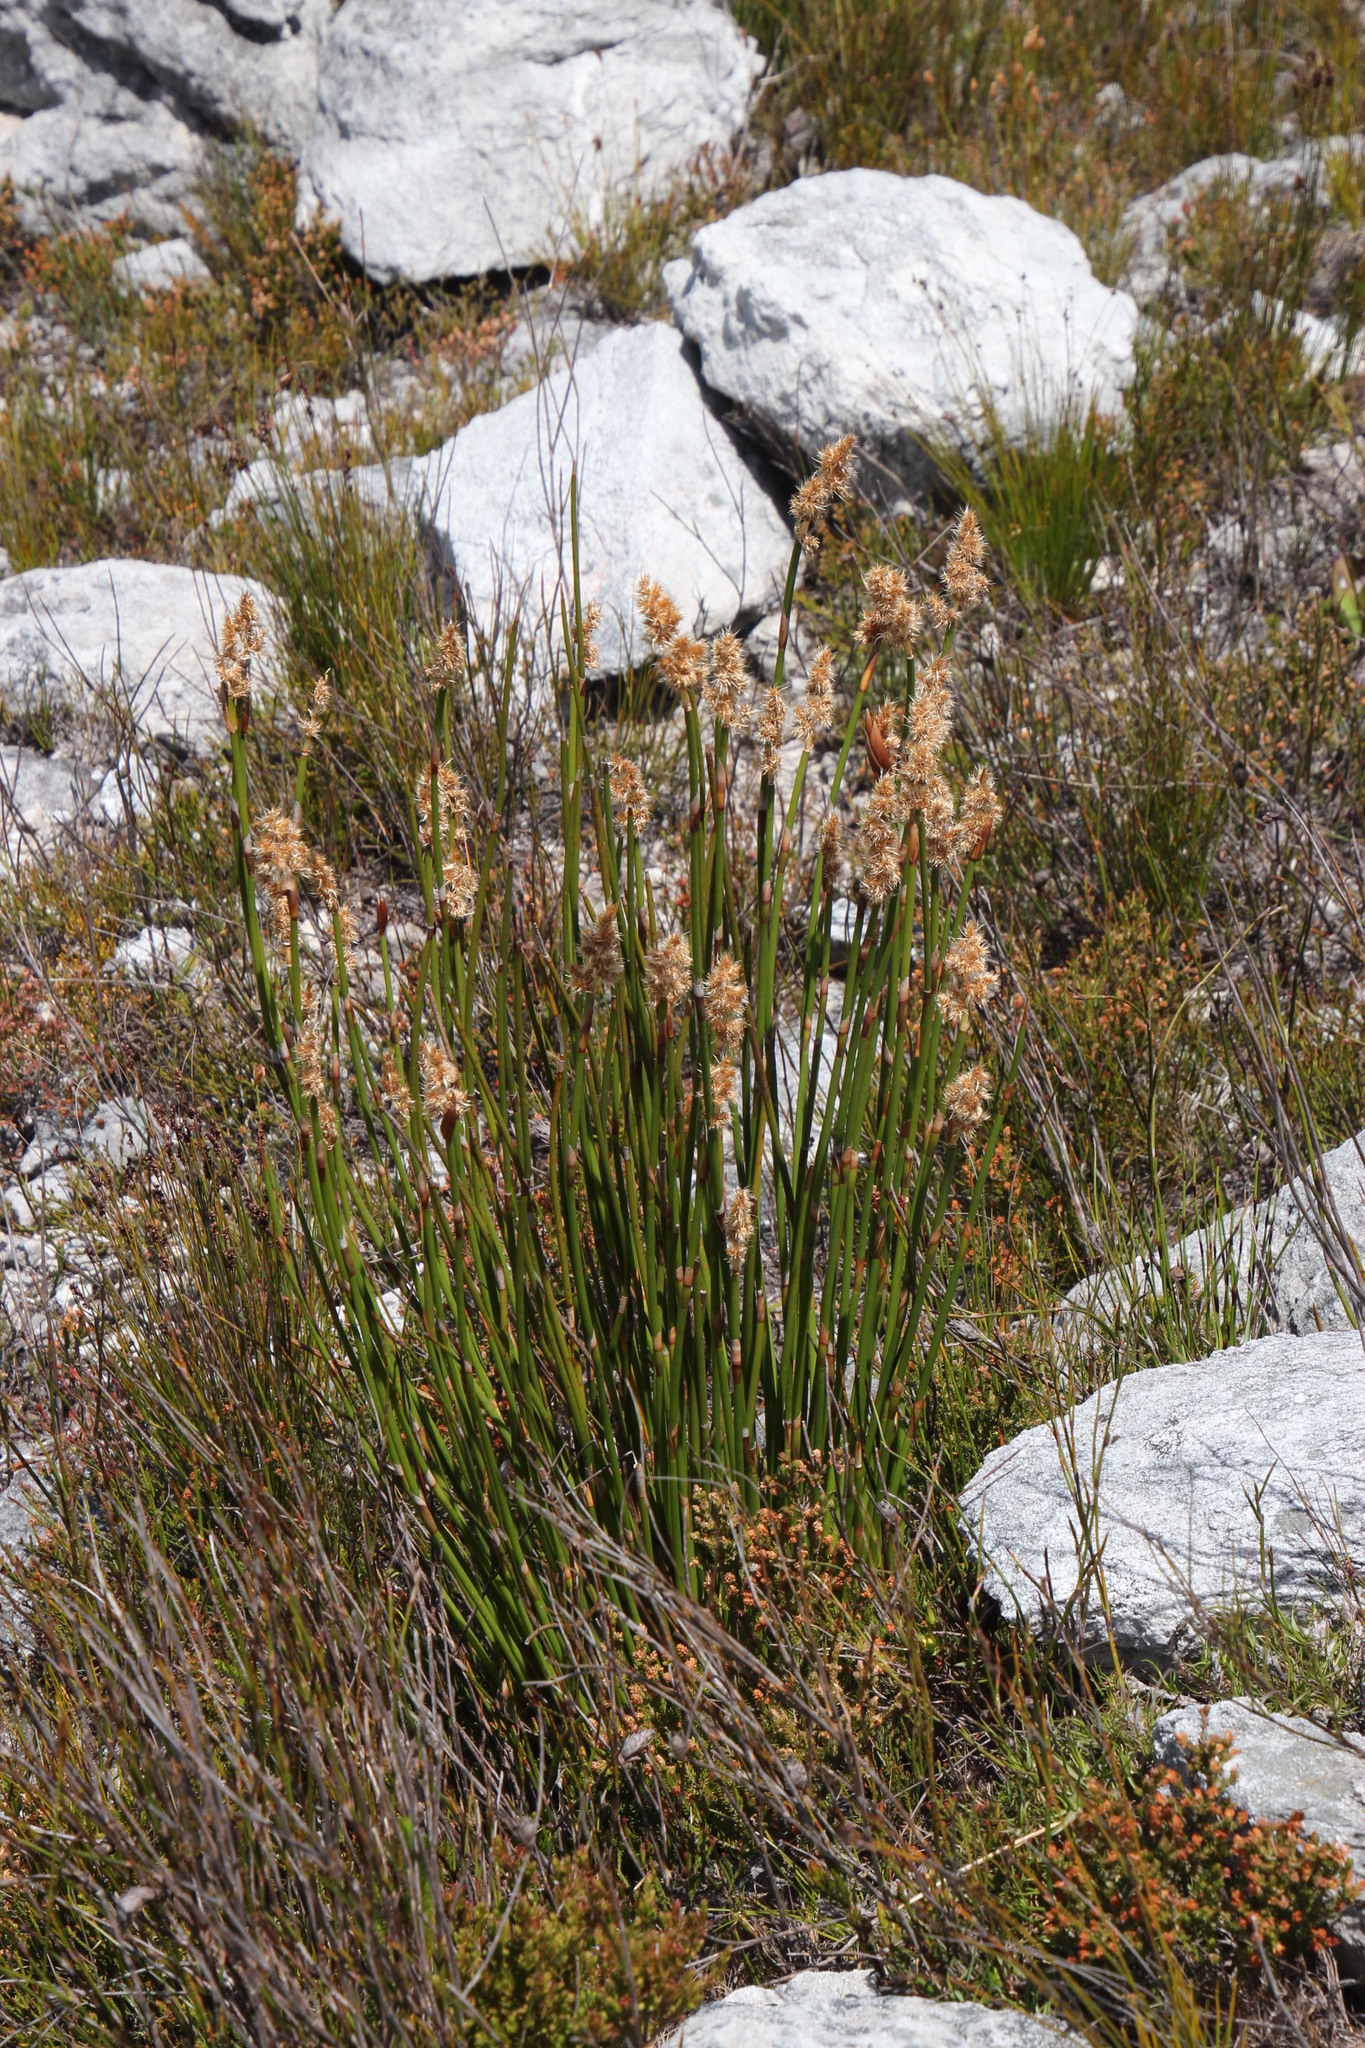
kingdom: Plantae
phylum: Tracheophyta
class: Liliopsida
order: Poales
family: Restionaceae
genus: Ceratocaryum
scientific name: Ceratocaryum persistens
